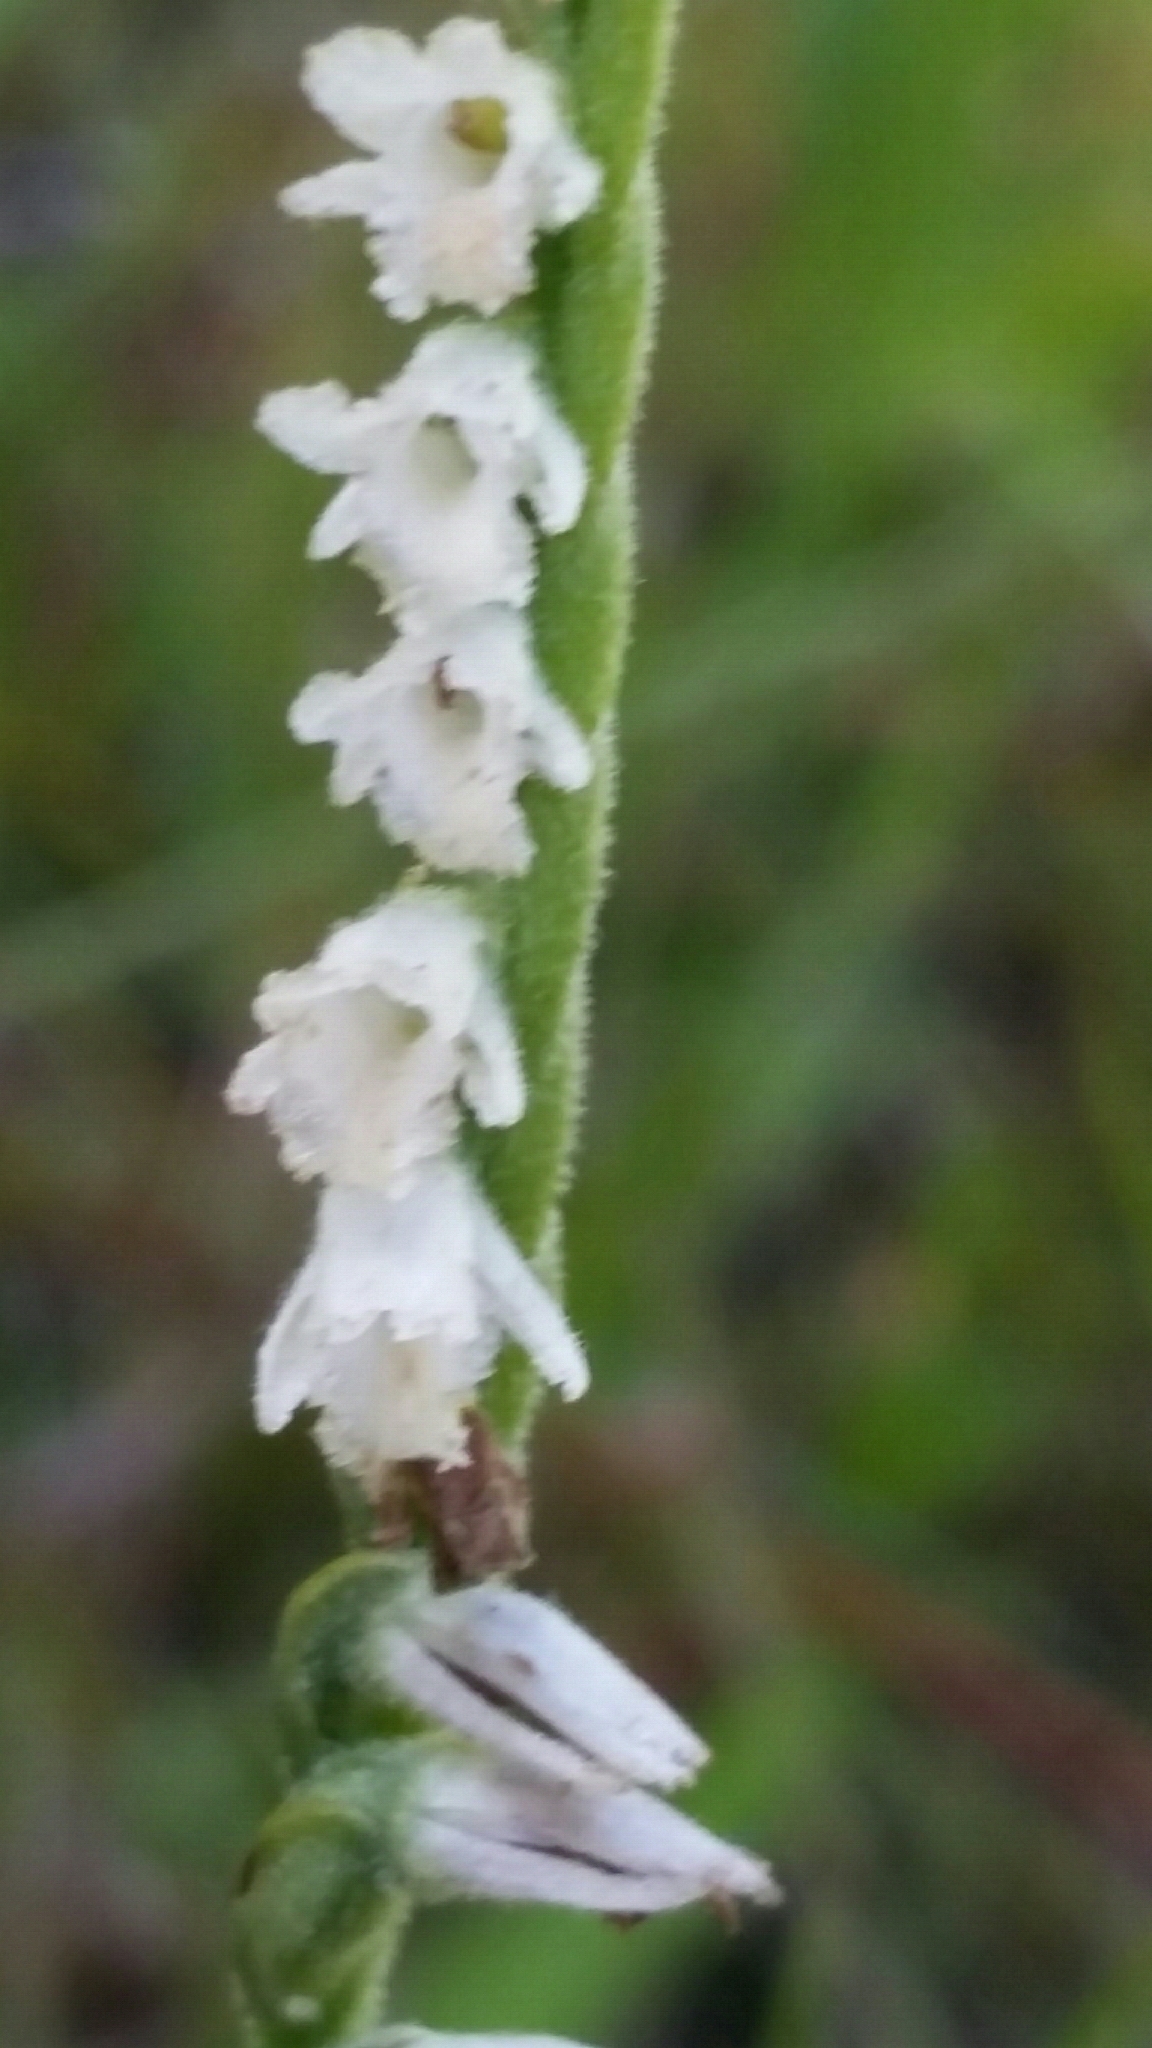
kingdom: Plantae
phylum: Tracheophyta
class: Liliopsida
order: Asparagales
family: Orchidaceae
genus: Spiranthes
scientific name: Spiranthes vernalis
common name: Spring ladies'-tresses
